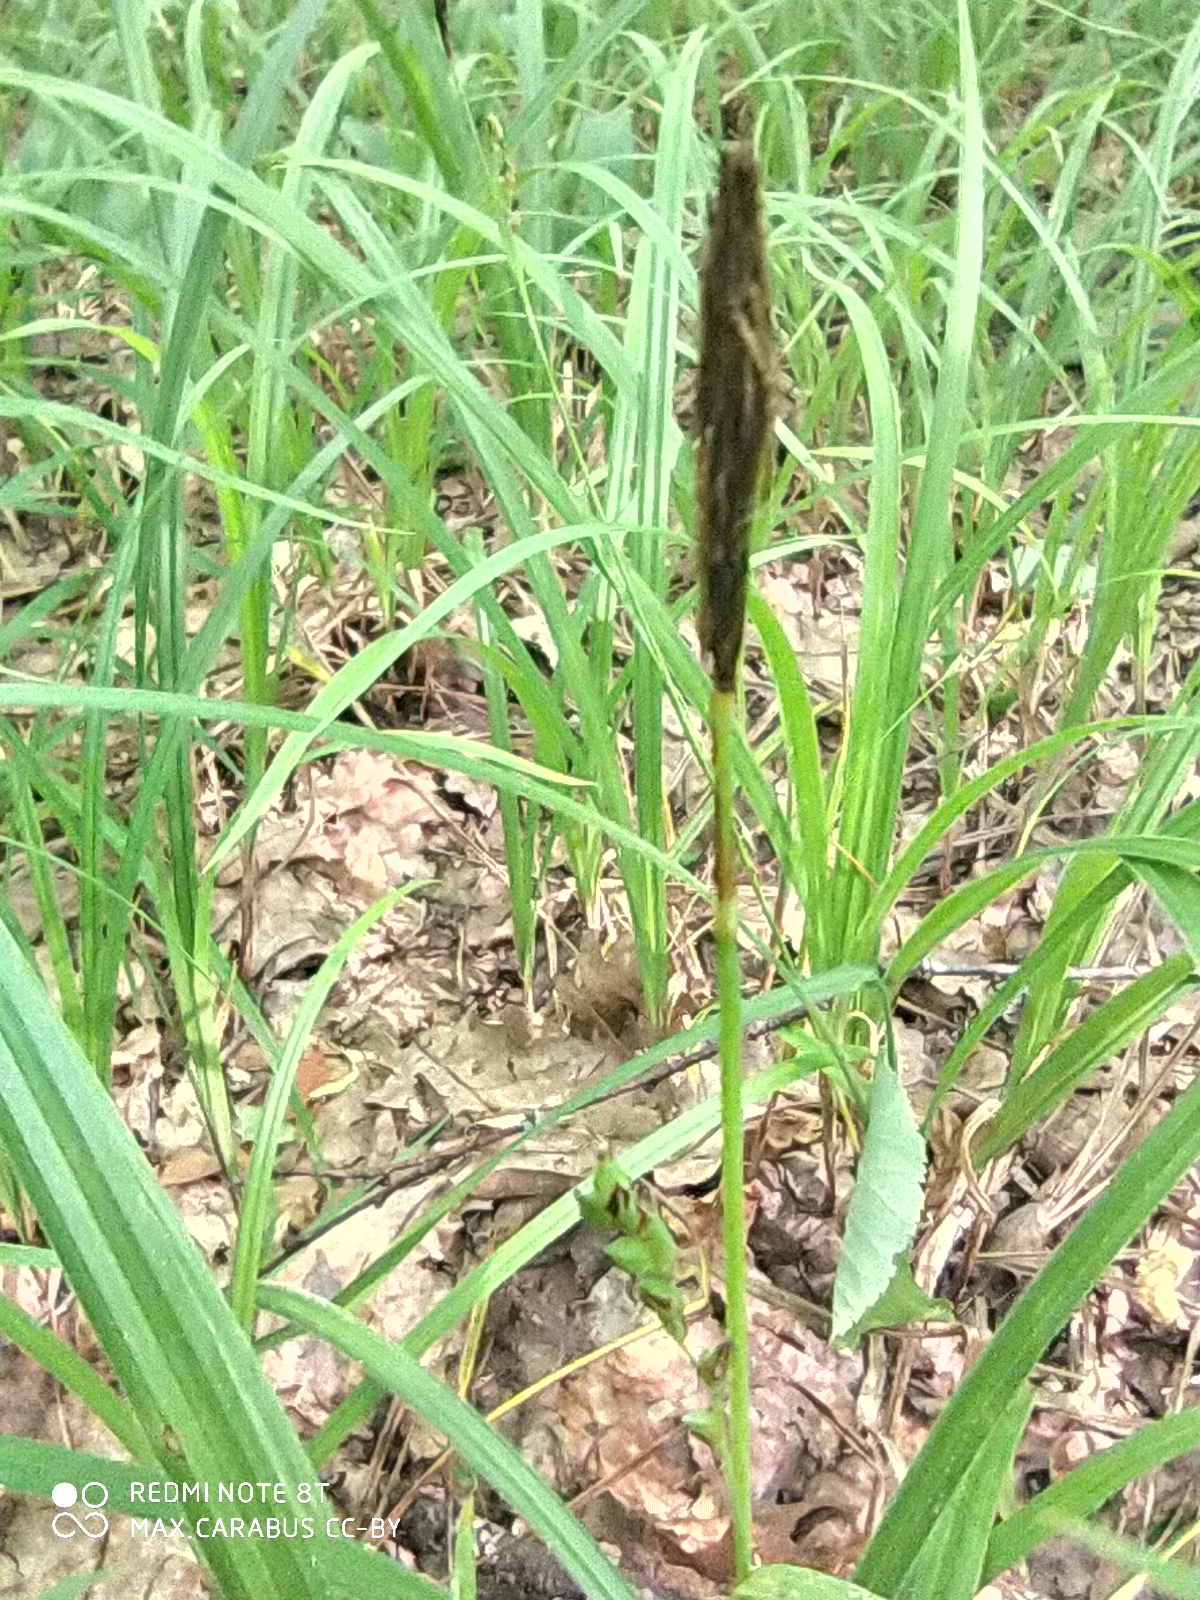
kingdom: Plantae
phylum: Tracheophyta
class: Liliopsida
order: Poales
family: Cyperaceae
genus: Carex
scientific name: Carex pilosa
